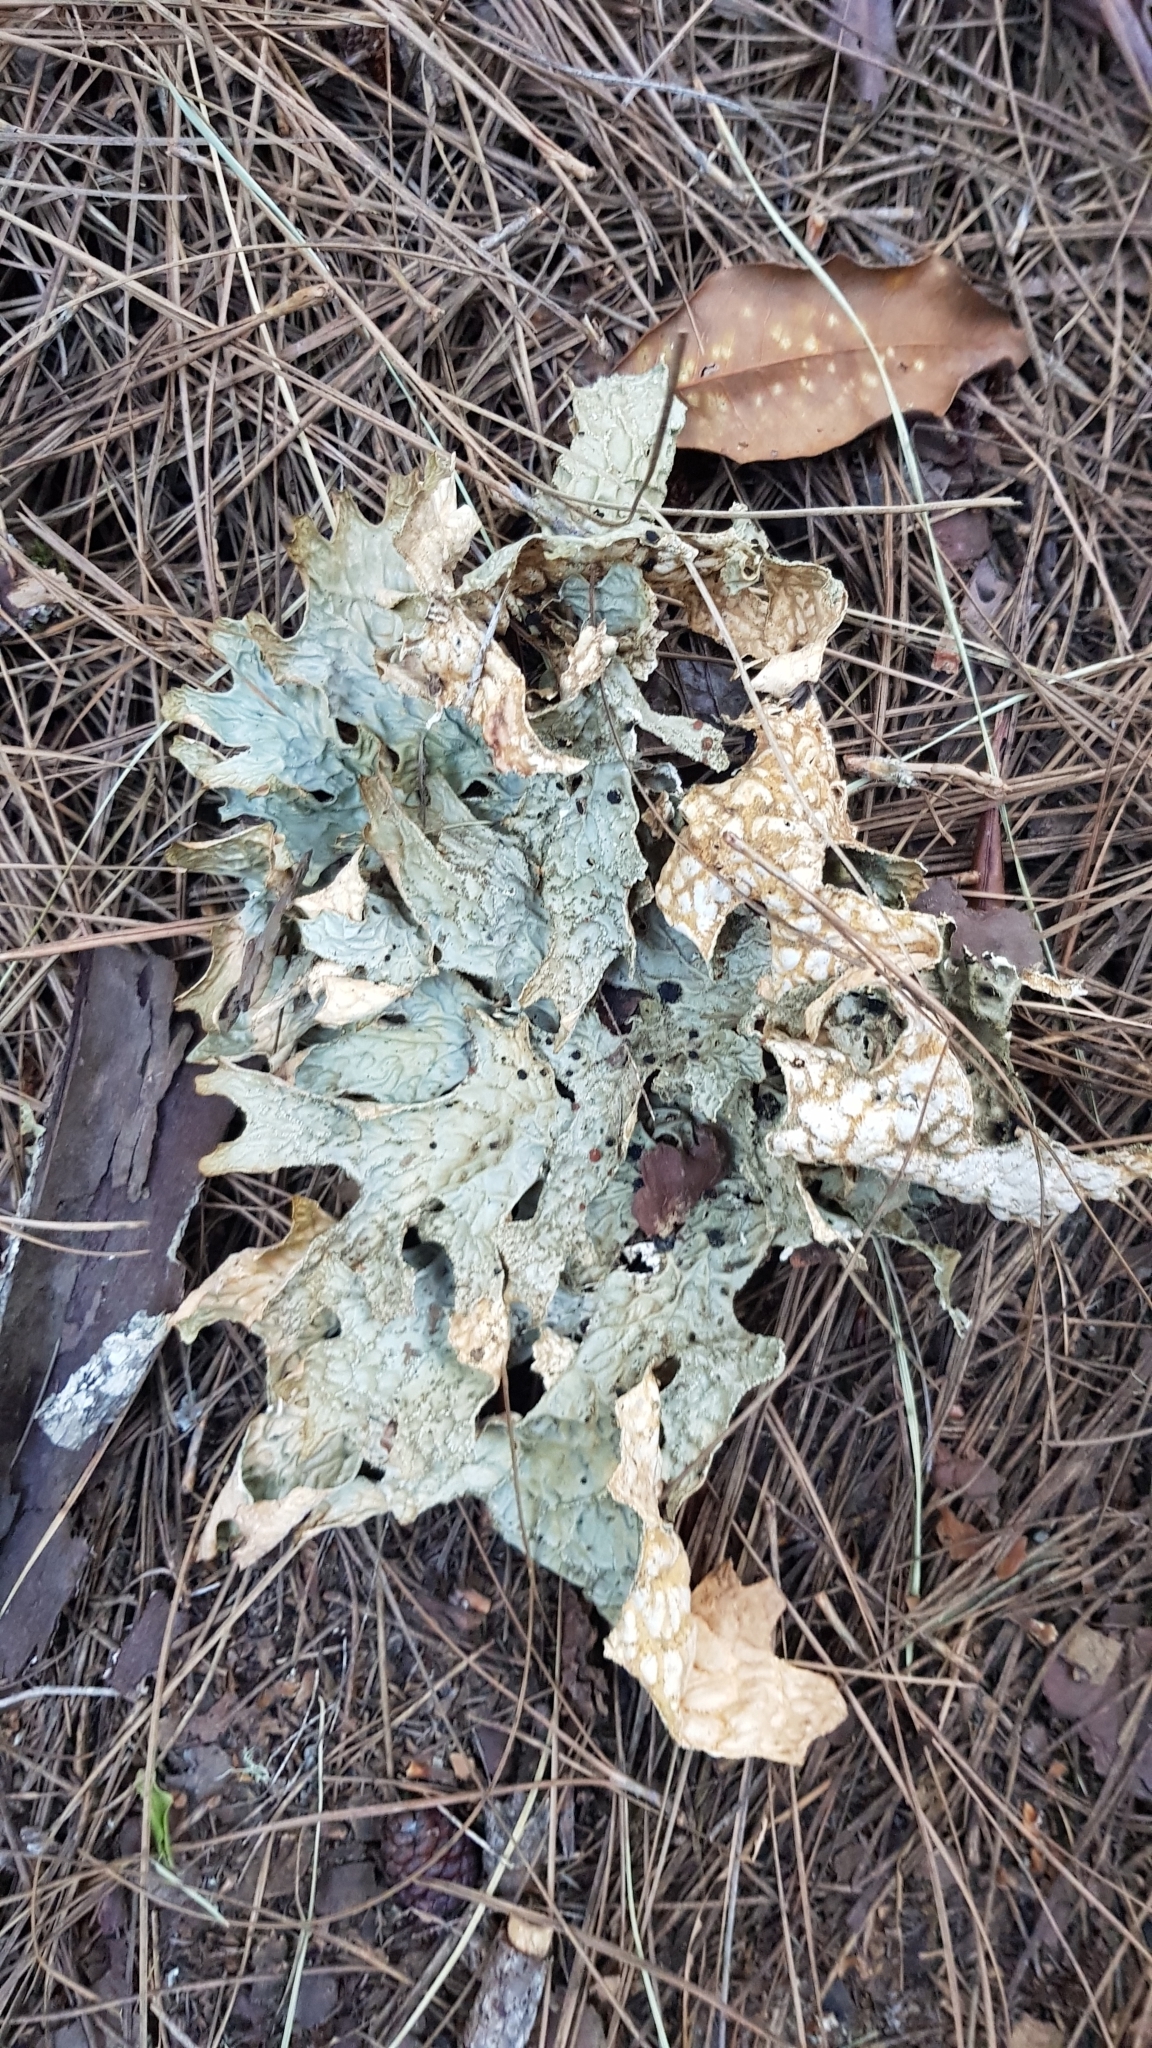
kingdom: Fungi
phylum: Ascomycota
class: Lecanoromycetes
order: Peltigerales
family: Lobariaceae
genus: Lobaria
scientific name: Lobaria pulmonaria
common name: Lungwort
